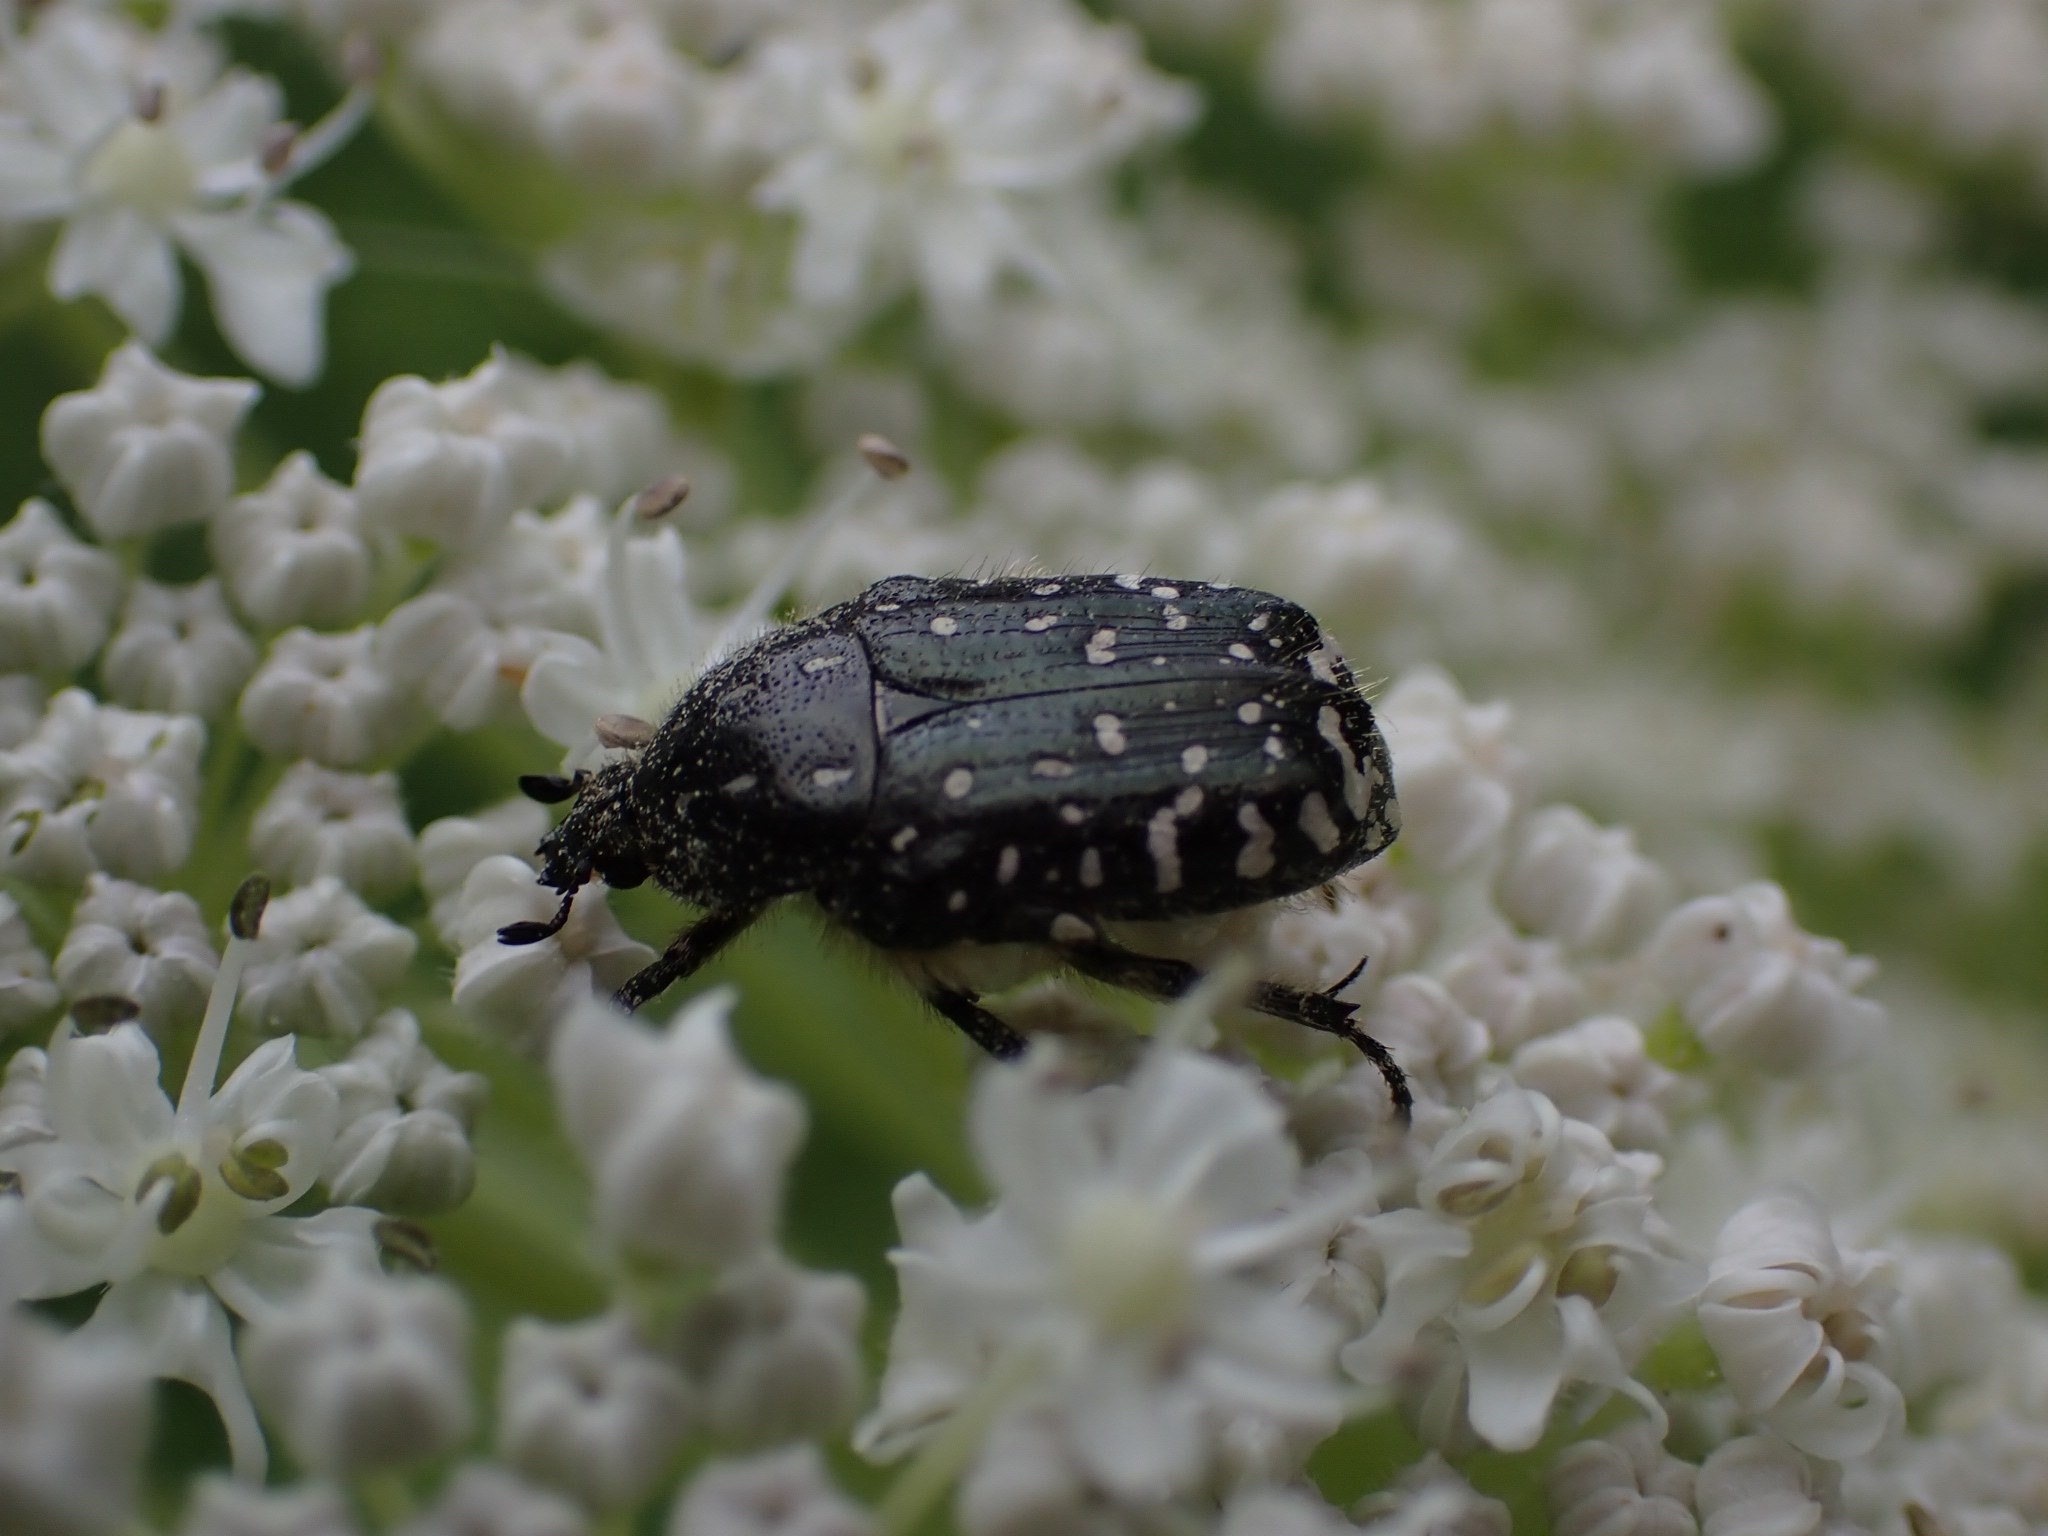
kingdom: Animalia
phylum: Arthropoda
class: Insecta
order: Coleoptera
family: Scarabaeidae
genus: Oxythyrea
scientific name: Oxythyrea funesta
